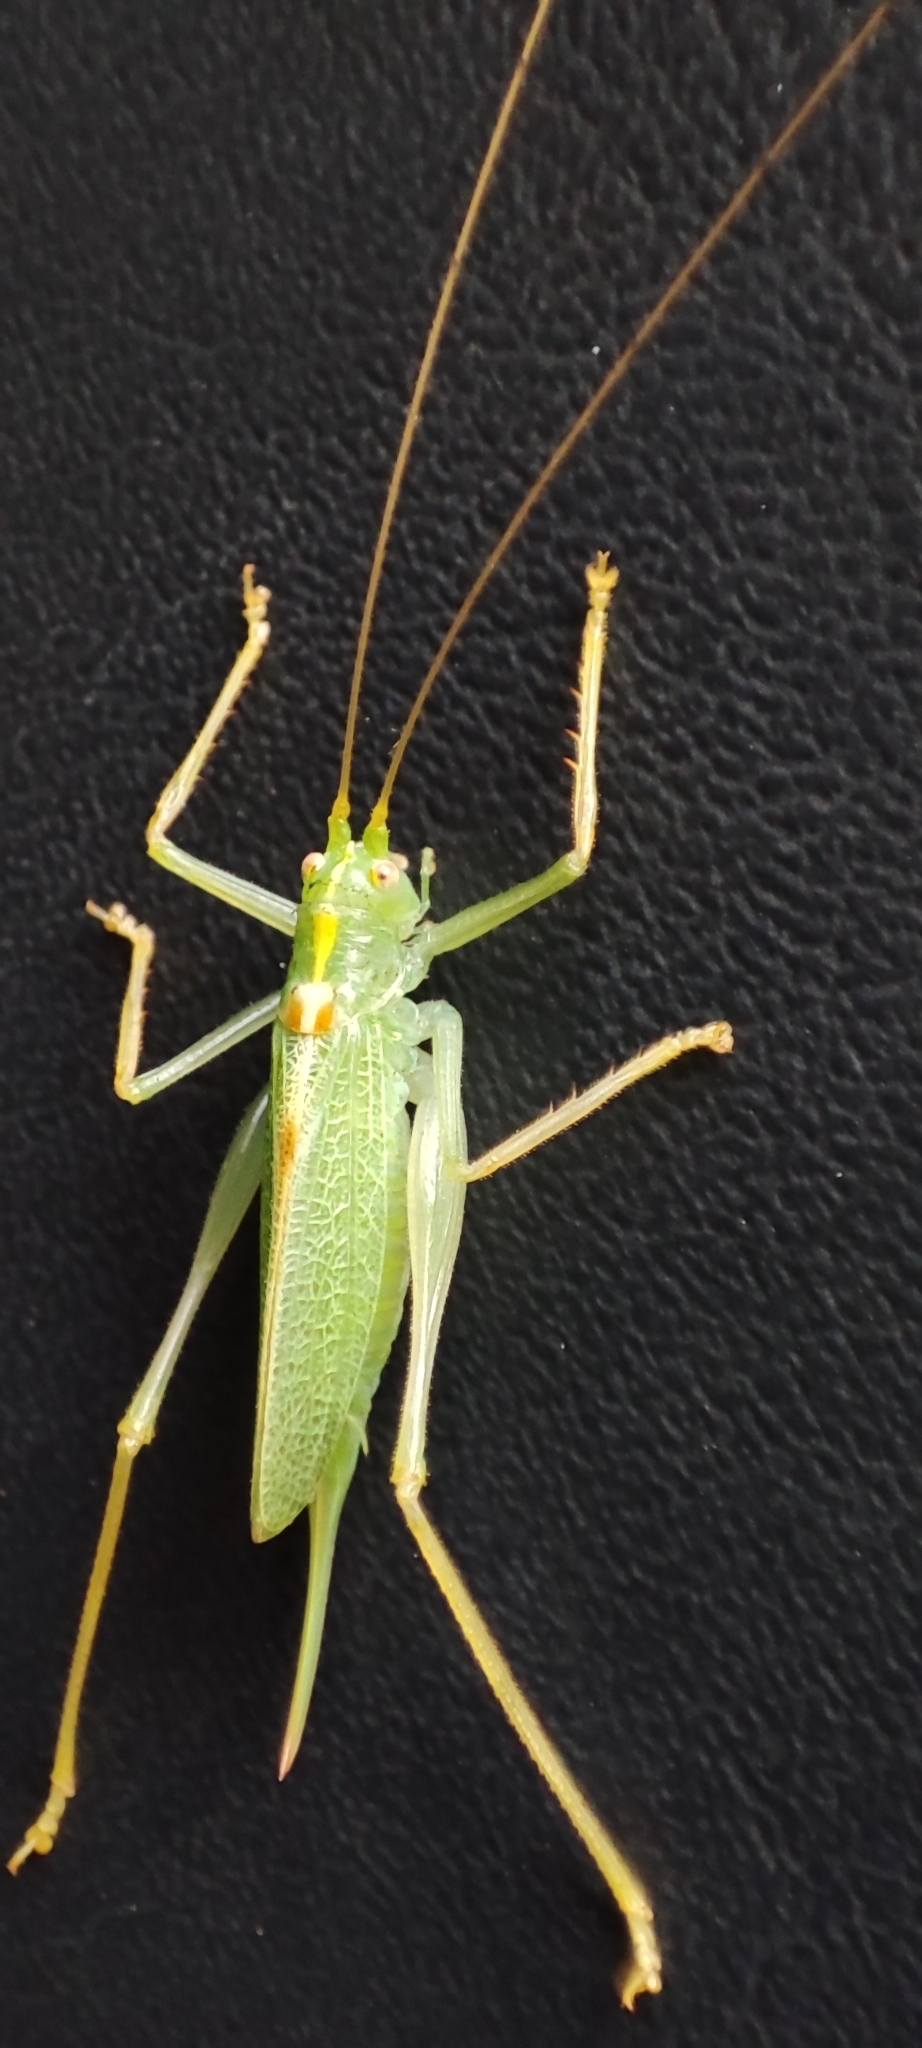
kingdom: Animalia
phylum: Arthropoda
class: Insecta
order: Orthoptera
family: Tettigoniidae
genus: Meconema
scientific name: Meconema thalassinum
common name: Oak bush-cricket
